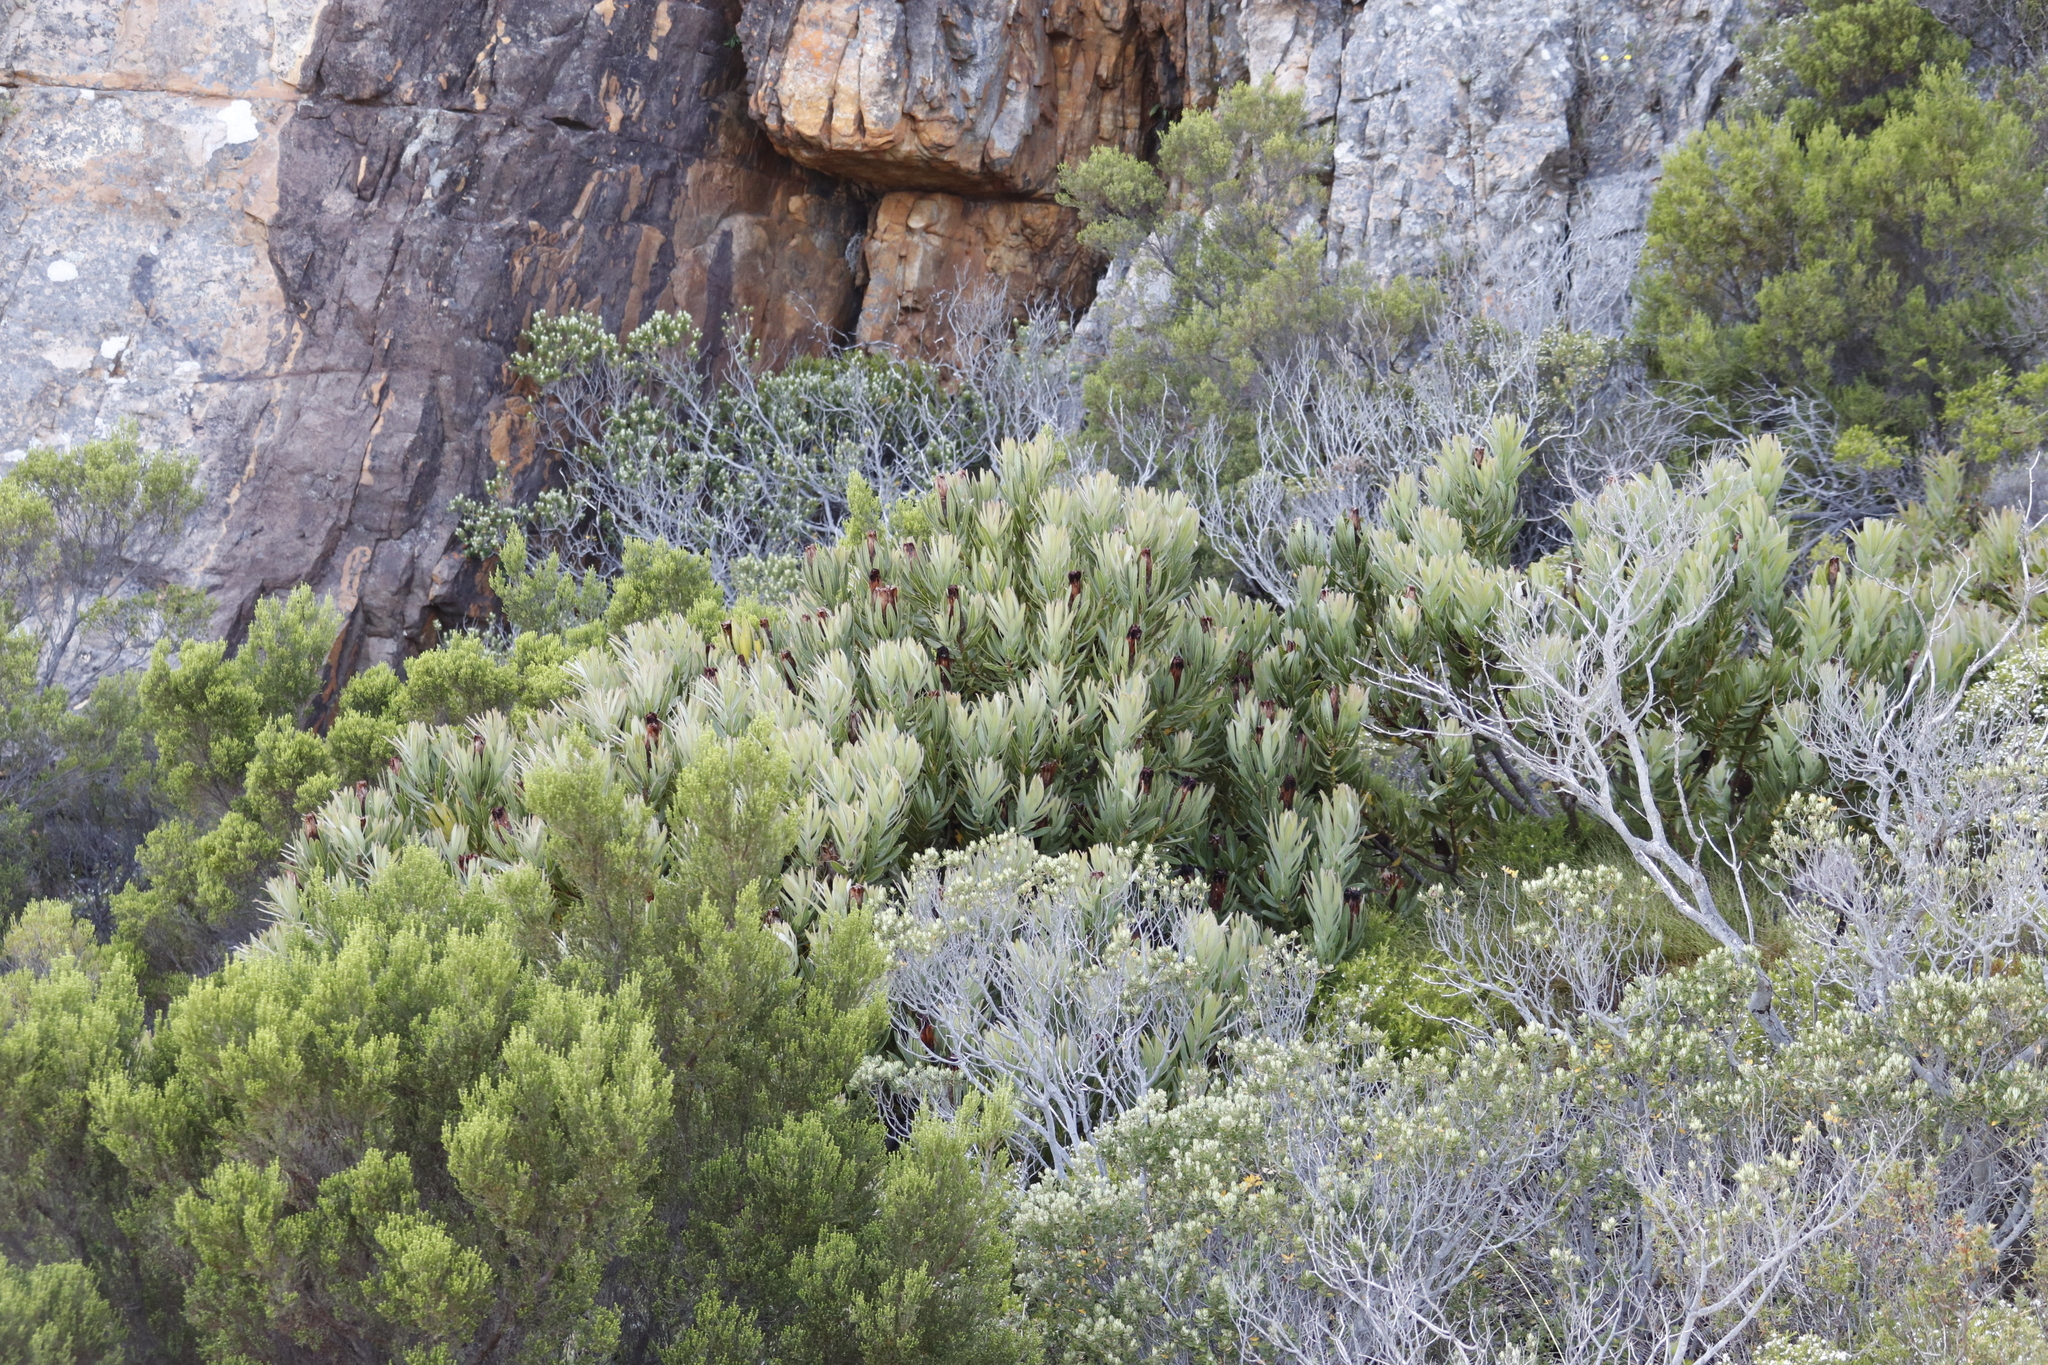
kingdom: Plantae
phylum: Tracheophyta
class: Magnoliopsida
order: Proteales
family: Proteaceae
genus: Protea
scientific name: Protea lepidocarpodendron
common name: Black-bearded protea
